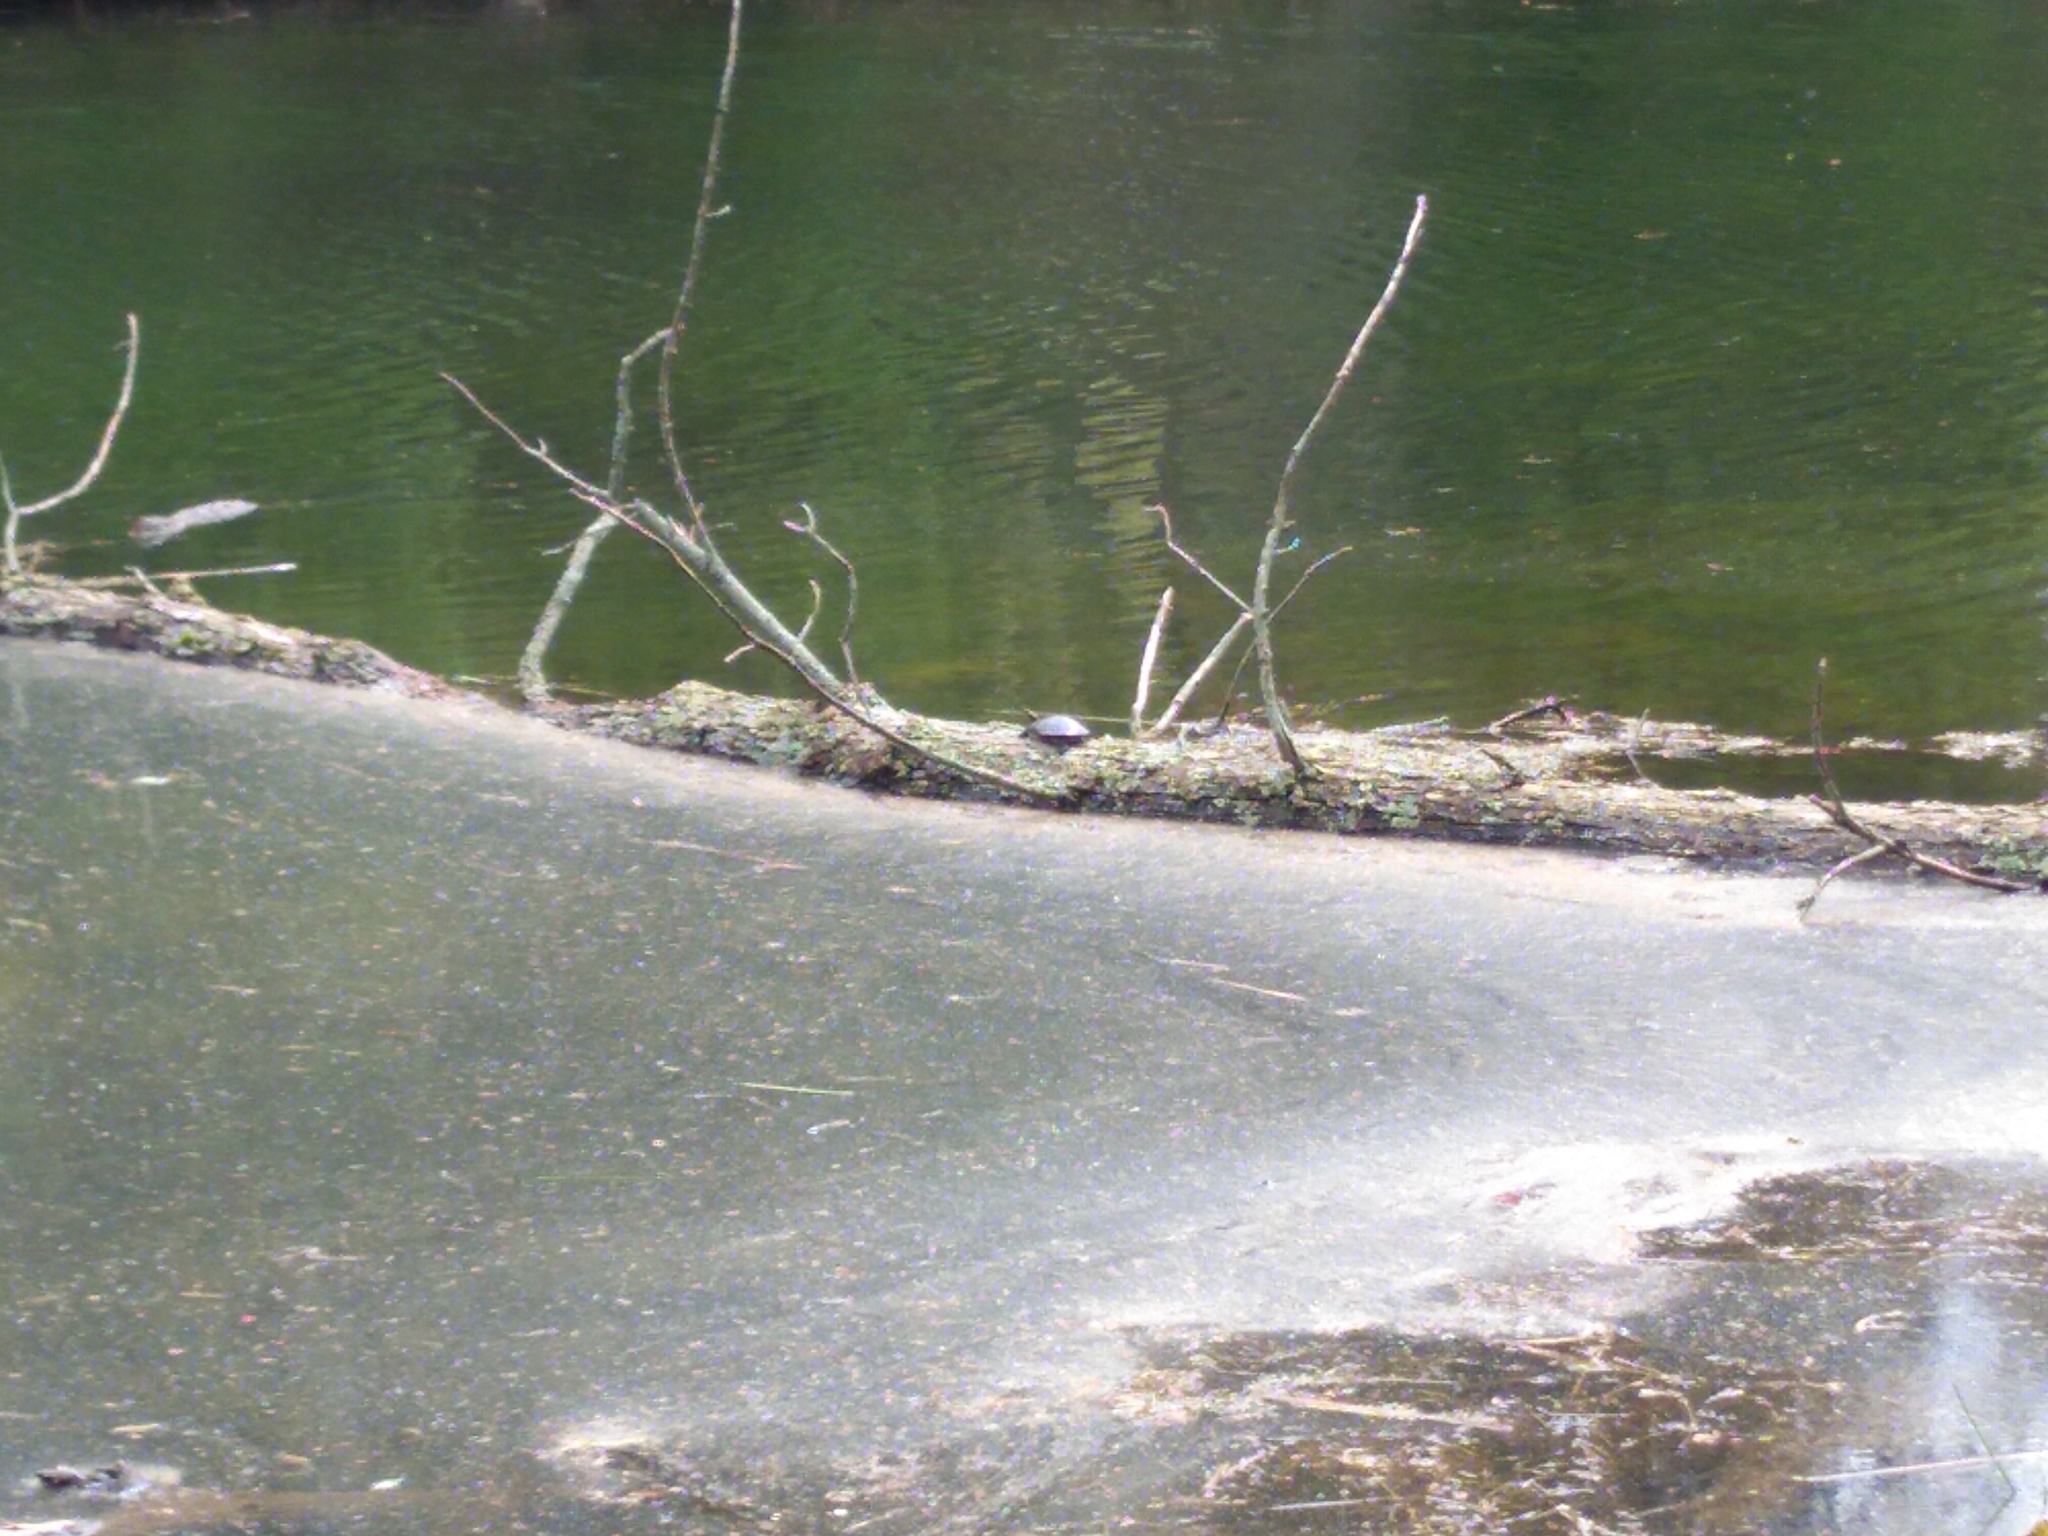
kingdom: Animalia
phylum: Chordata
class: Testudines
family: Emydidae
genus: Chrysemys
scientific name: Chrysemys picta
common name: Painted turtle
